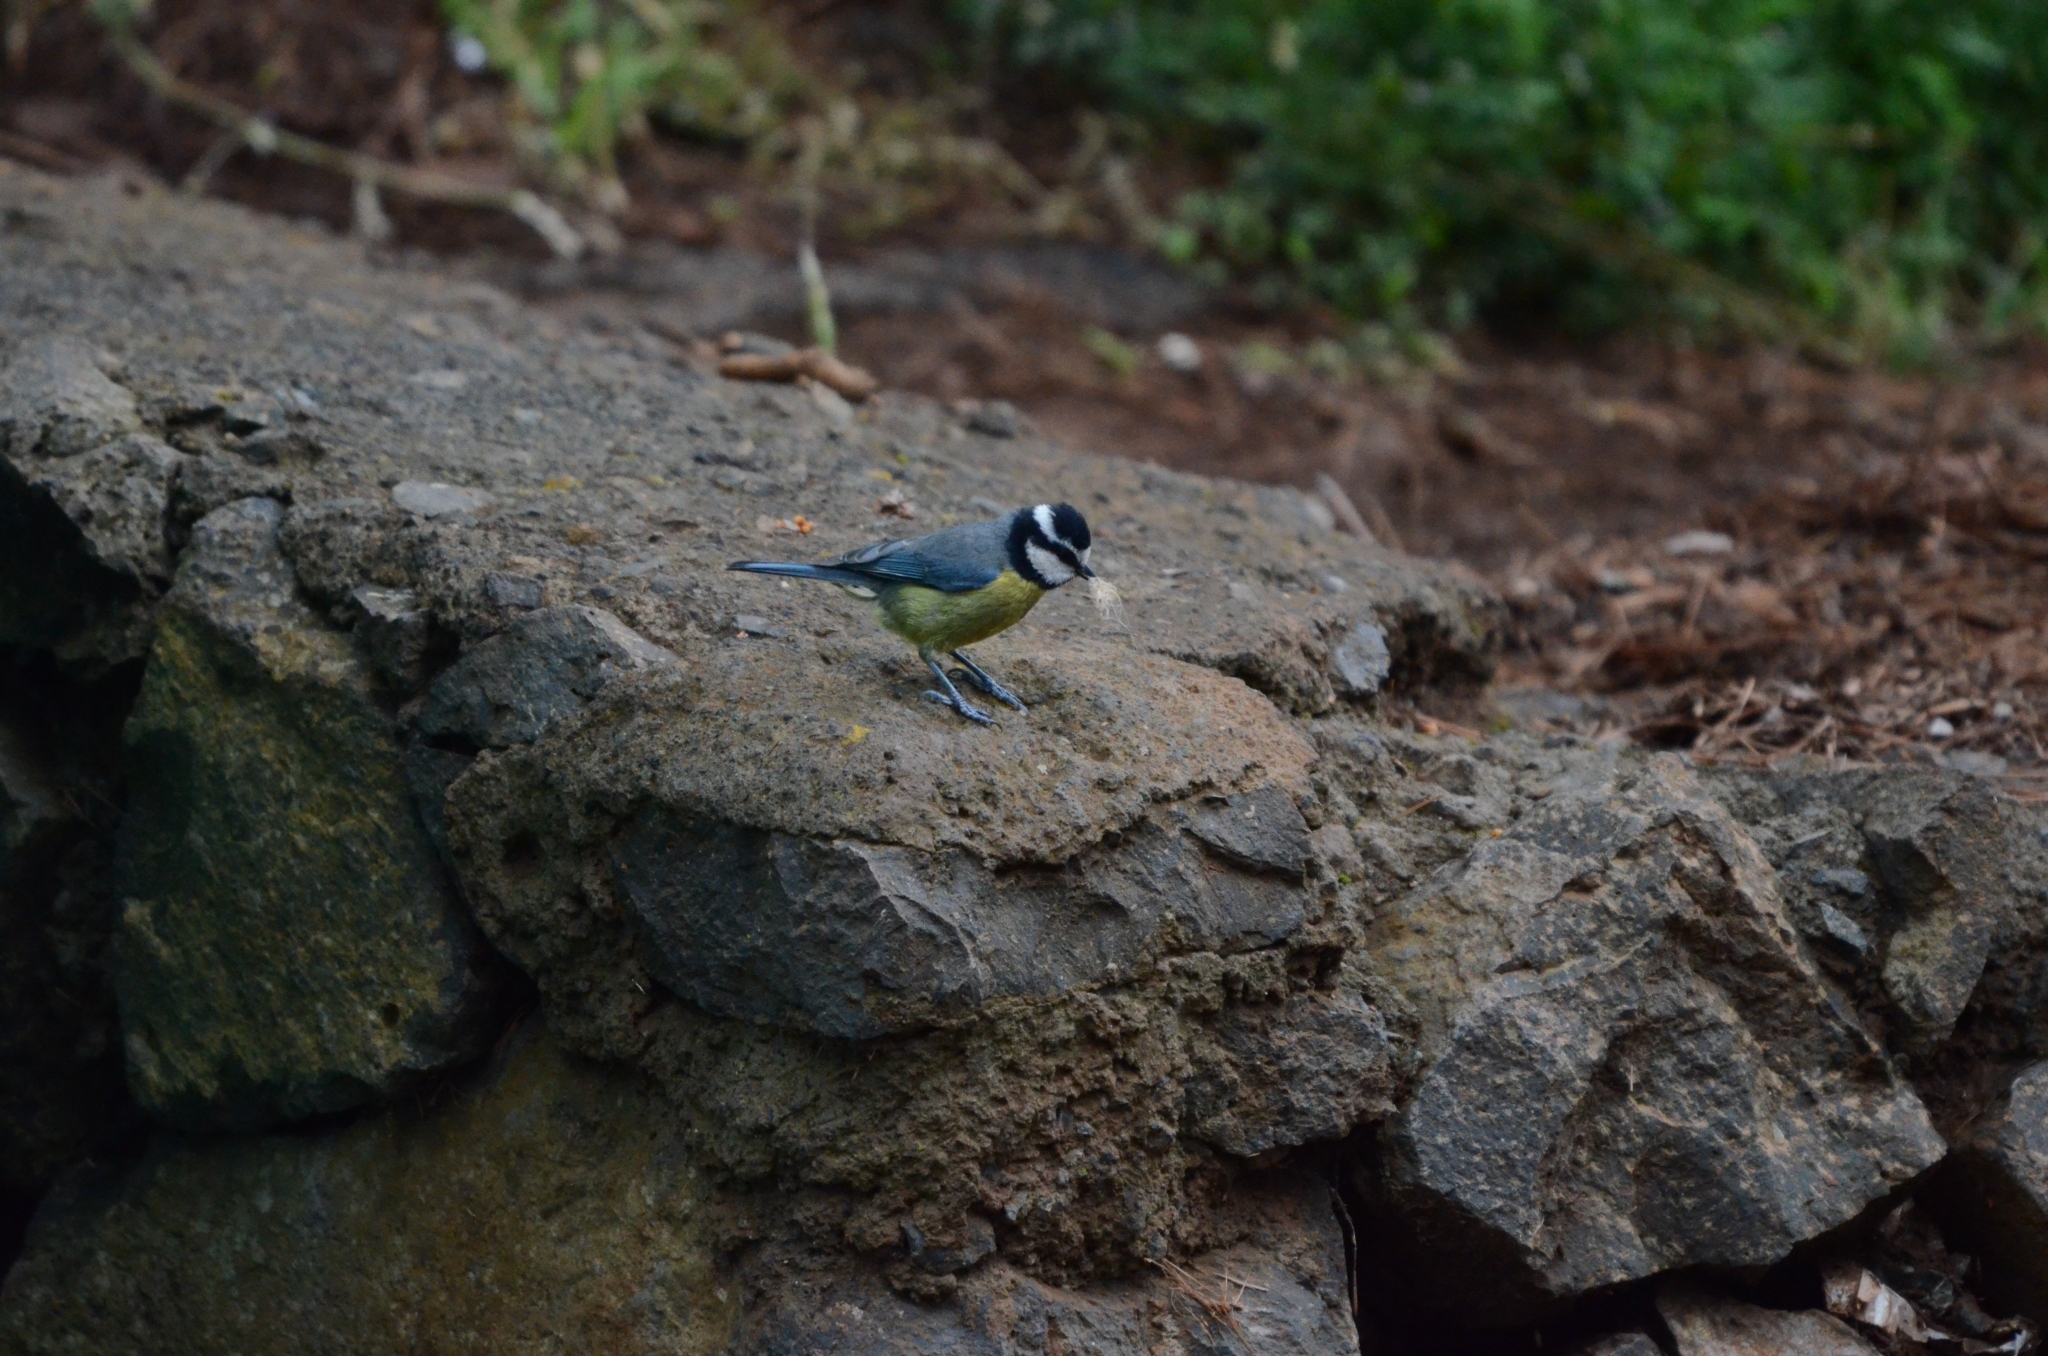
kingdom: Animalia
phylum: Chordata
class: Aves
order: Passeriformes
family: Paridae
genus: Cyanistes
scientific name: Cyanistes teneriffae
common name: African blue tit
